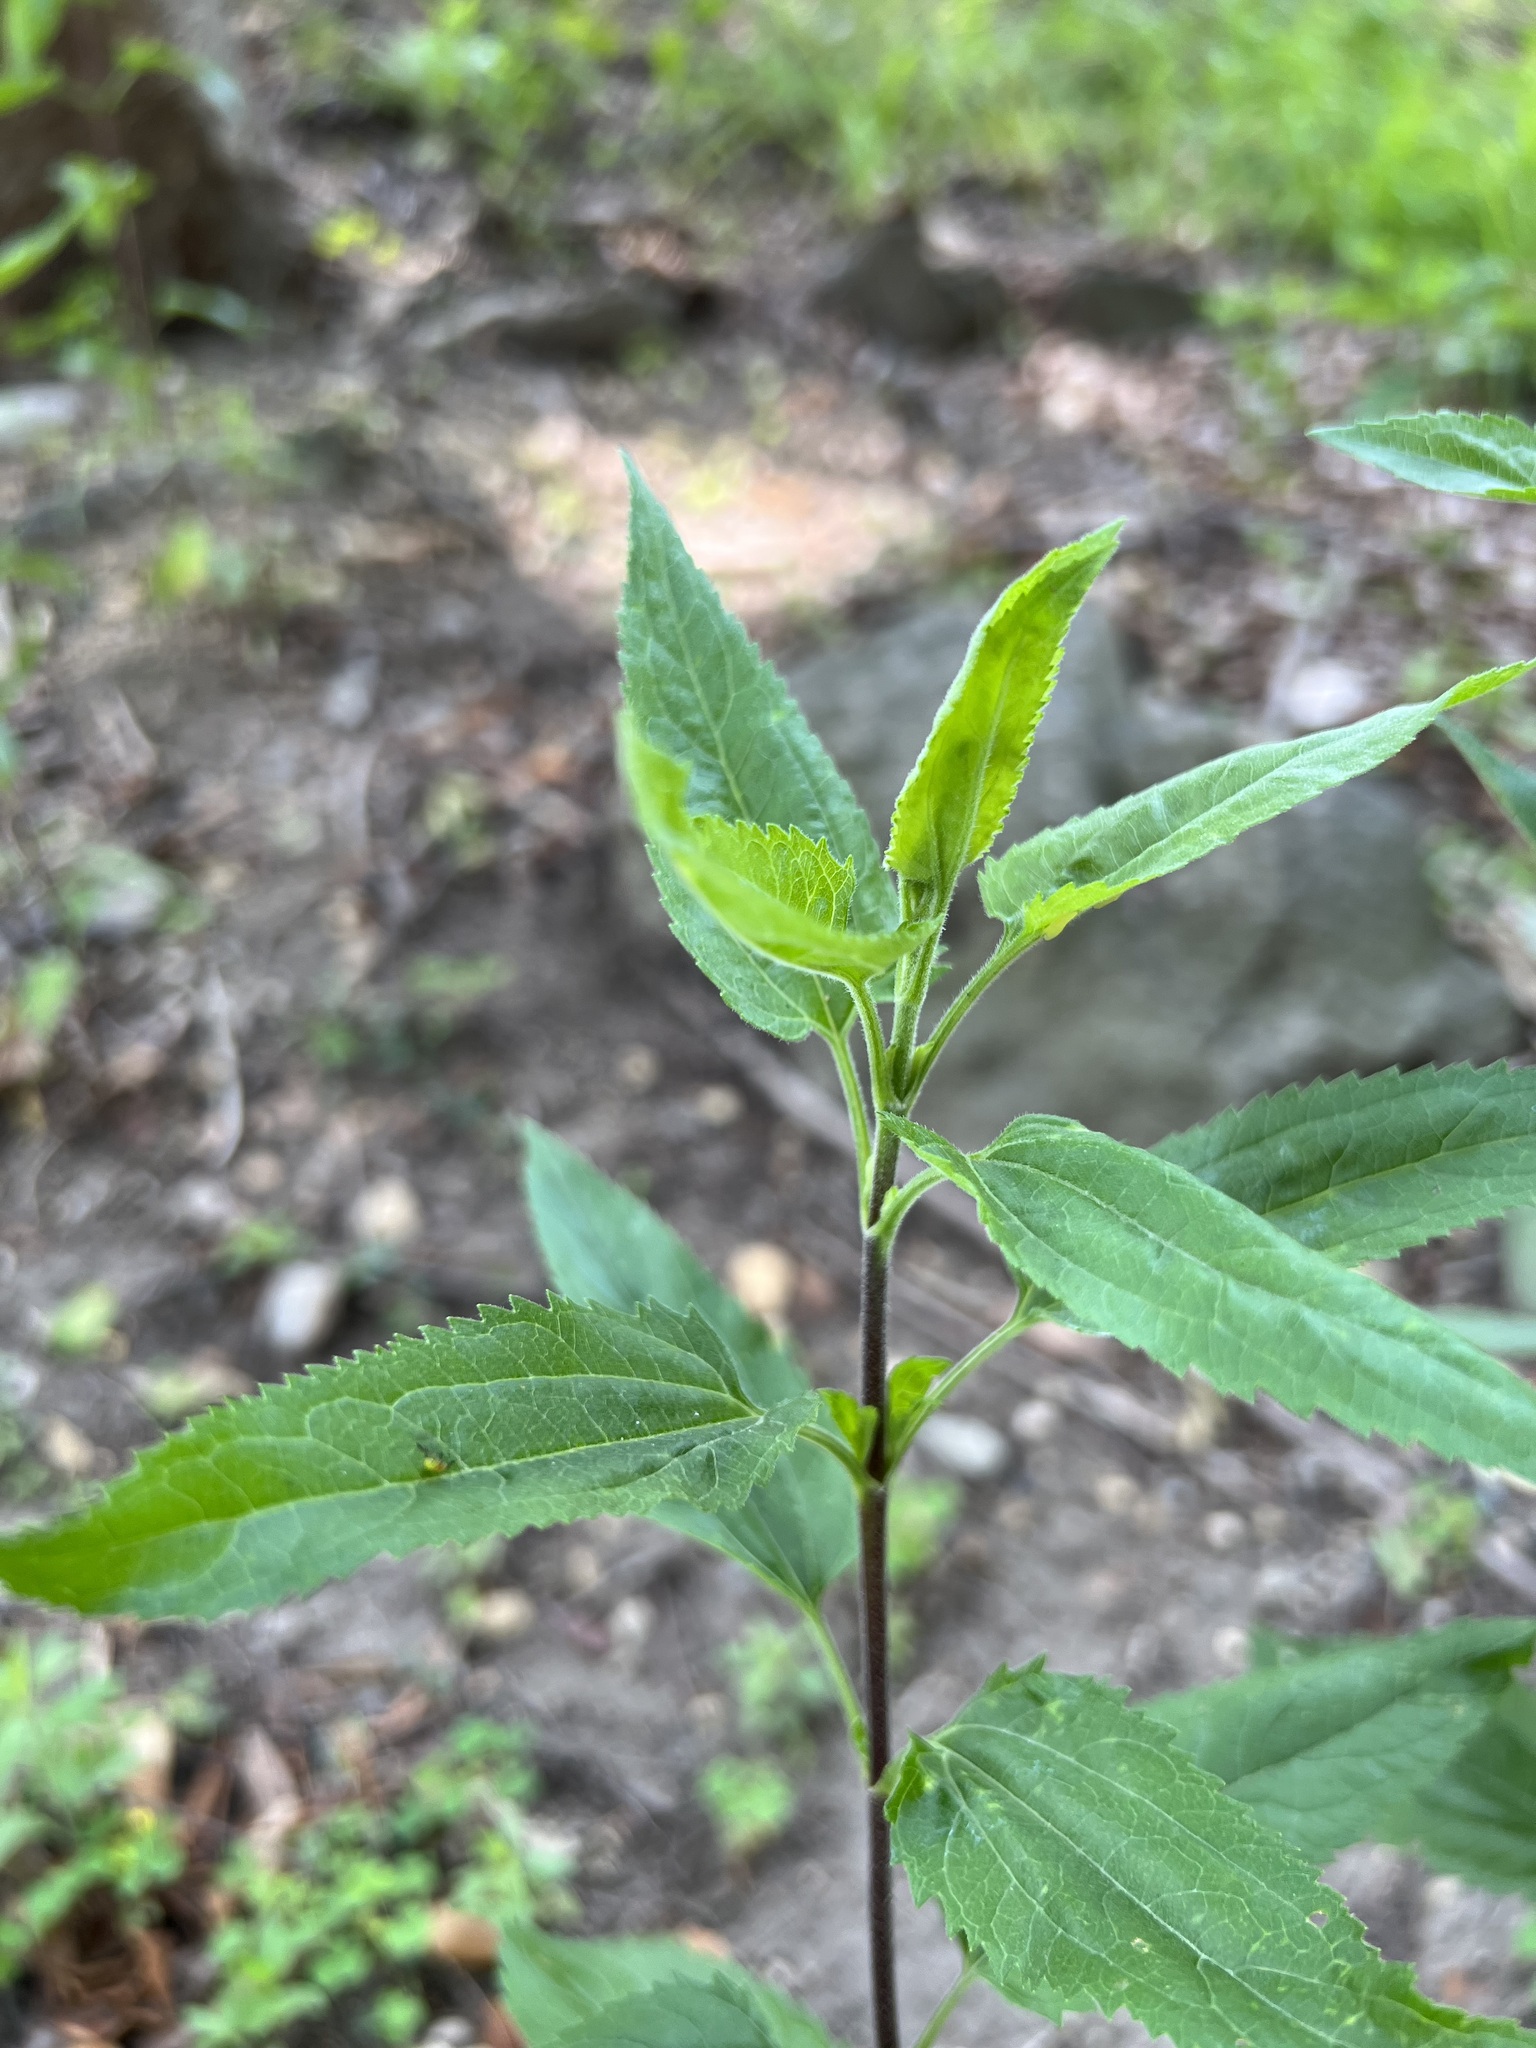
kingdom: Plantae
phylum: Tracheophyta
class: Magnoliopsida
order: Asterales
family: Asteraceae
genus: Eupatorium
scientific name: Eupatorium serotinum
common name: Late boneset
